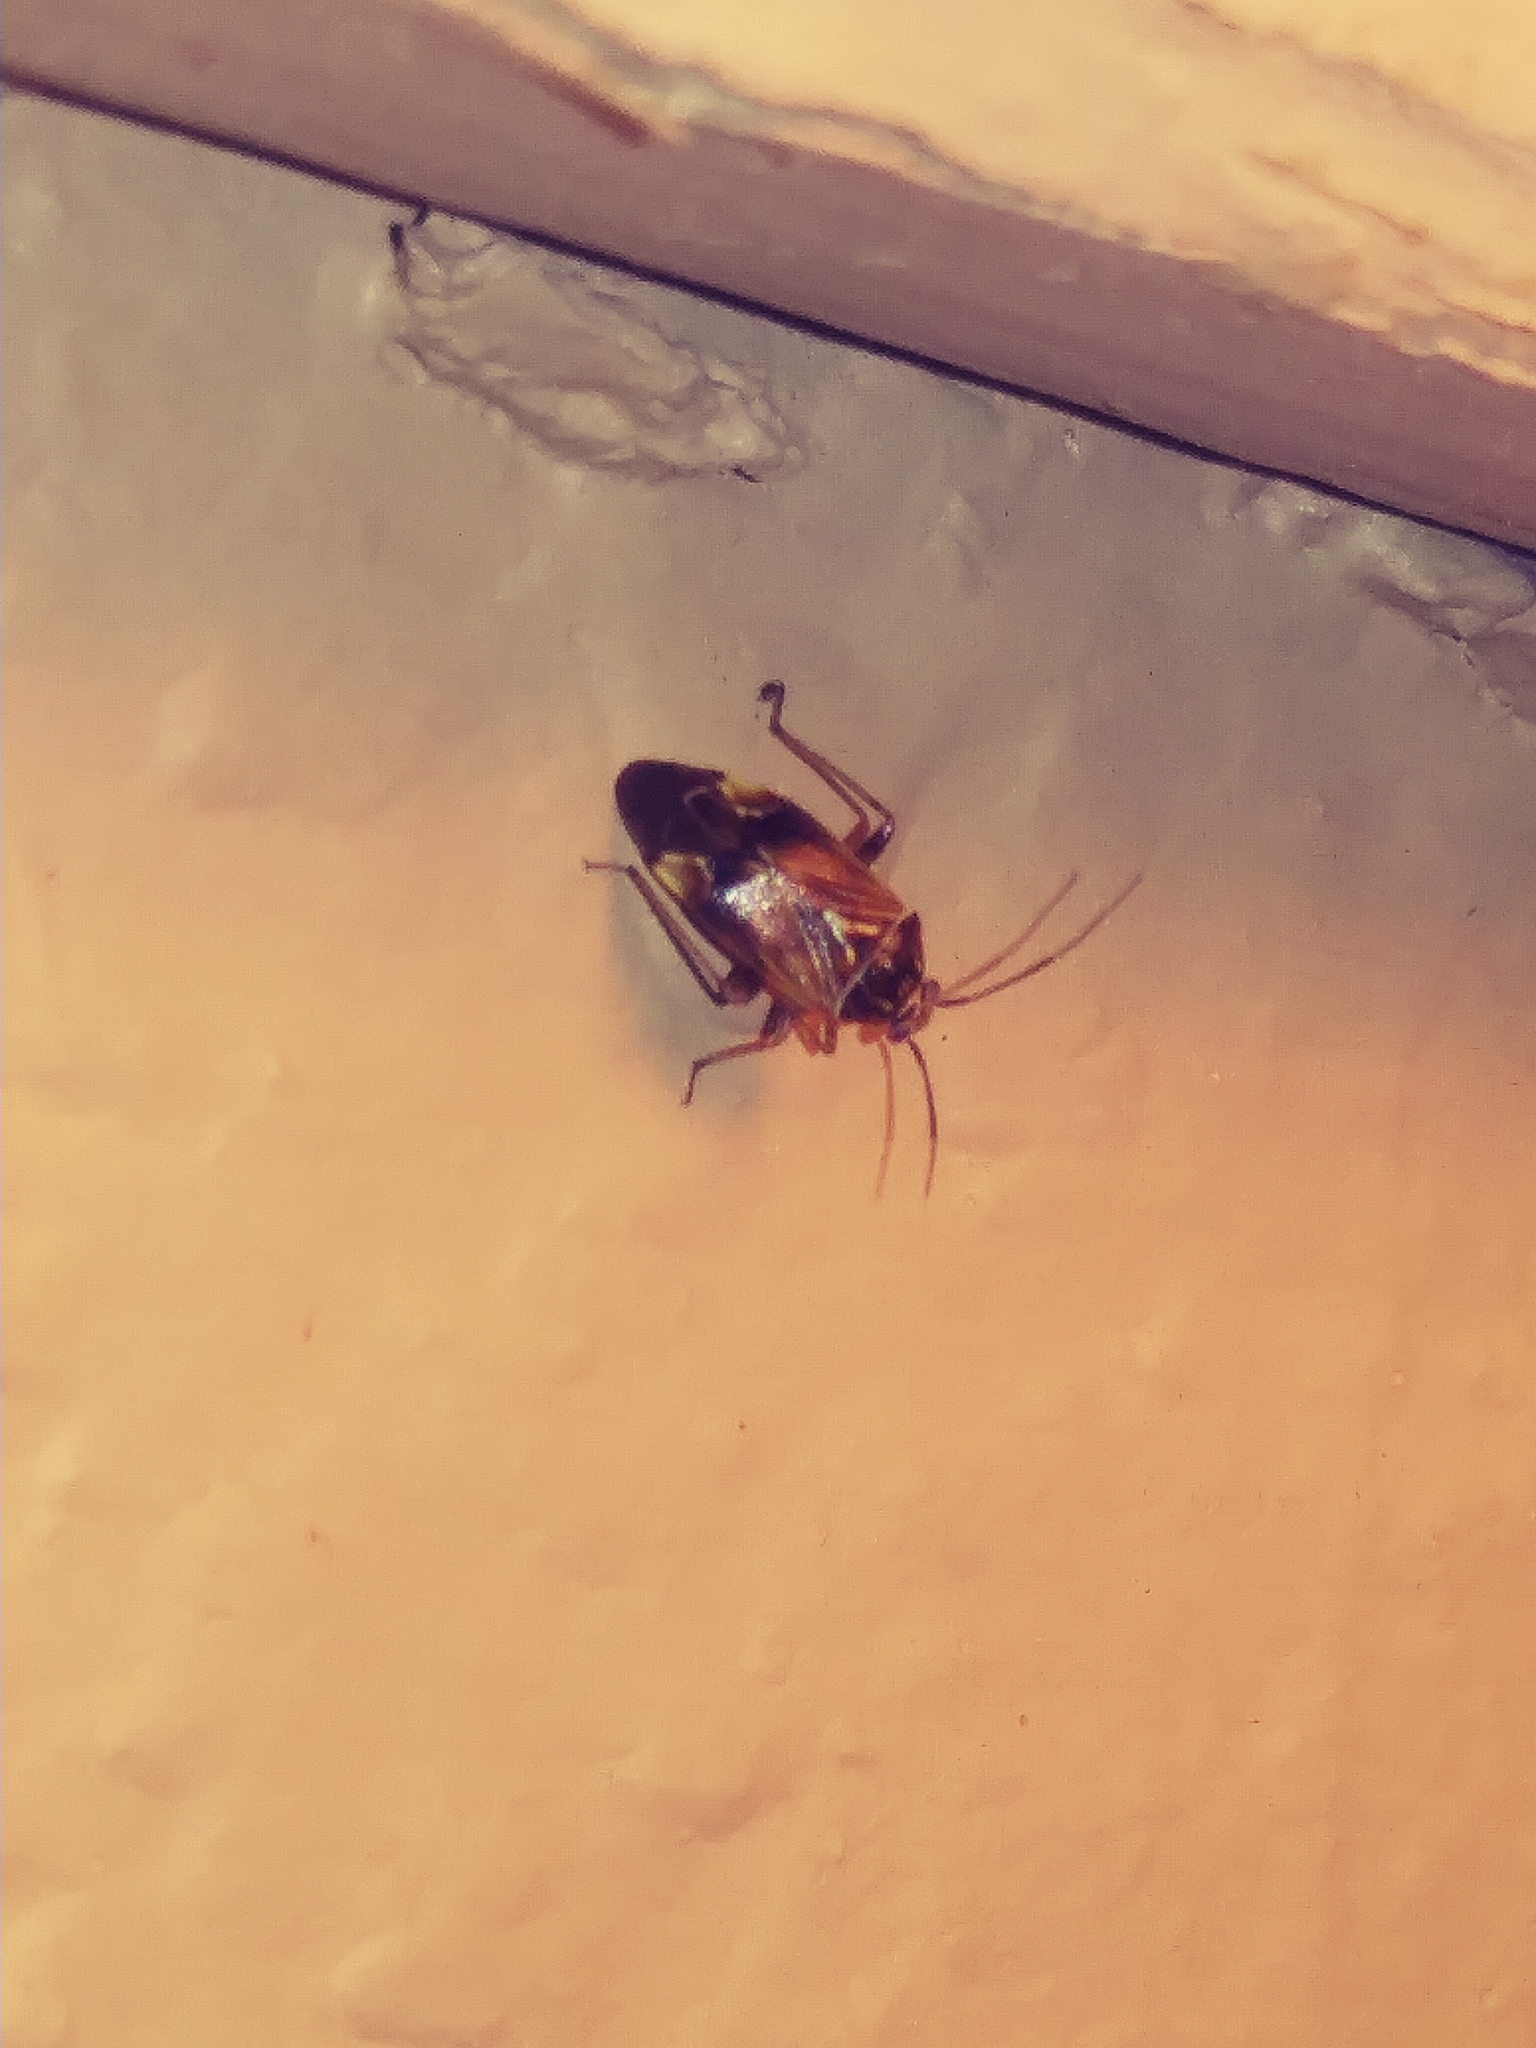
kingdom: Animalia
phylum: Arthropoda
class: Insecta
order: Hemiptera
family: Miridae
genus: Lygus
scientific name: Lygus lineolaris
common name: North american tarnished plant bug
